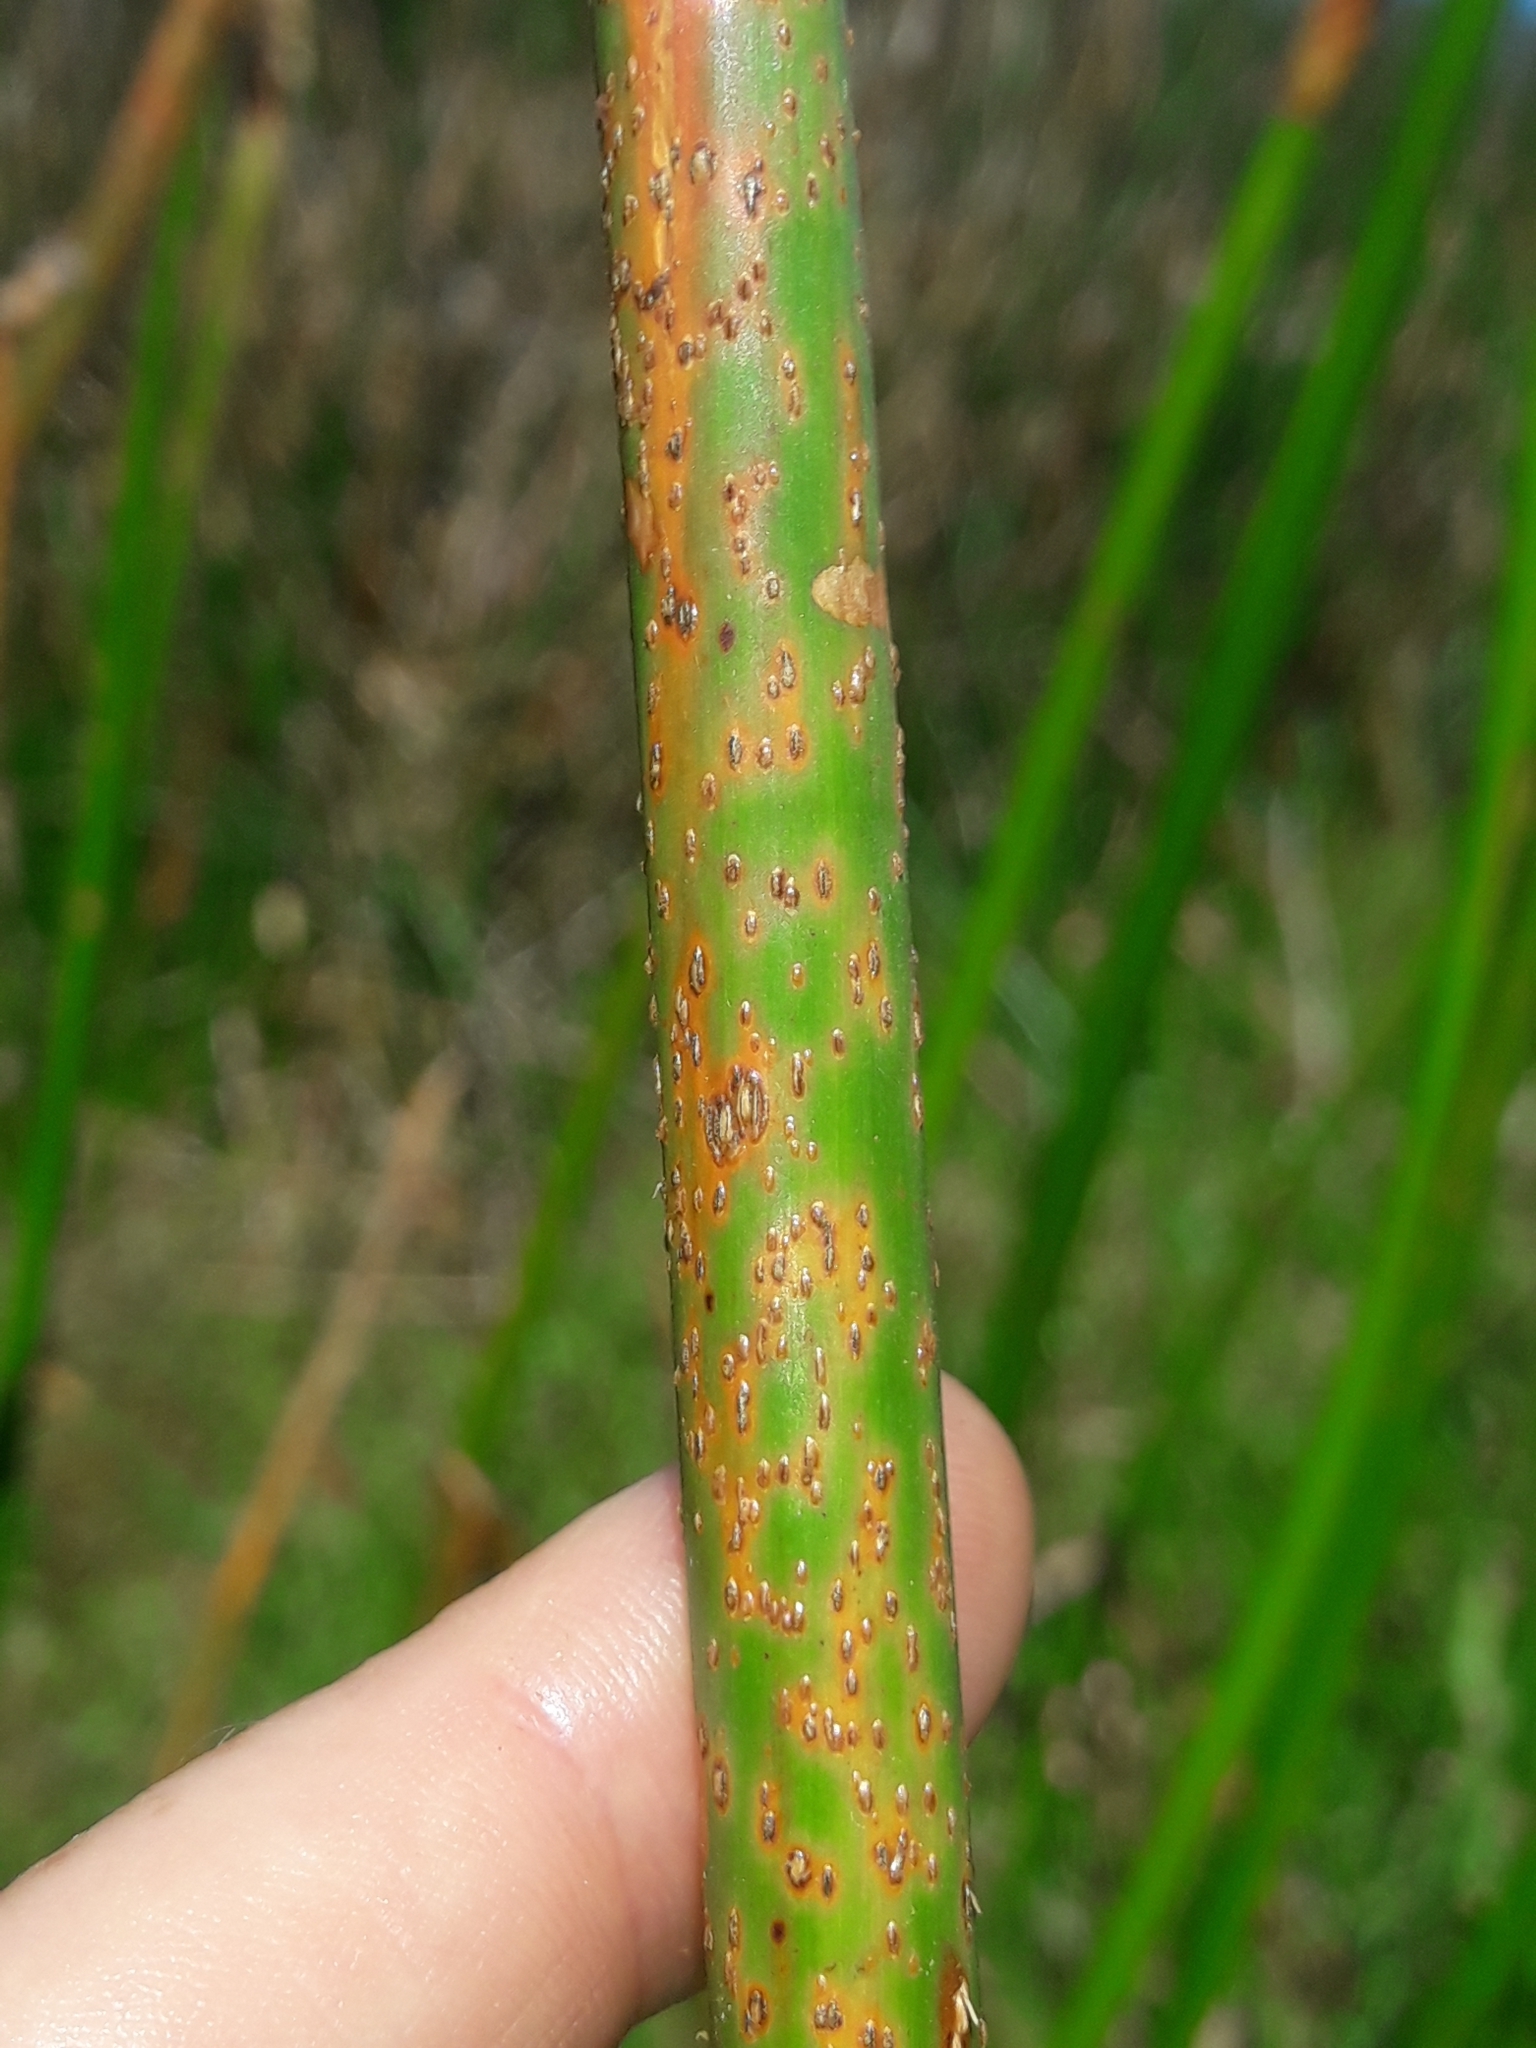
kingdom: Fungi
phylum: Basidiomycota
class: Pucciniomycetes
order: Pucciniales
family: Pucciniaceae
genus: Puccinia
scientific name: Puccinia liberta
